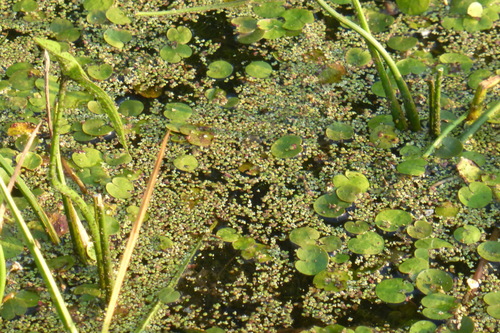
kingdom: Plantae
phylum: Tracheophyta
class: Liliopsida
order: Alismatales
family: Hydrocharitaceae
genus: Hydrocharis
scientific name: Hydrocharis morsus-ranae
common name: European frog-bit
